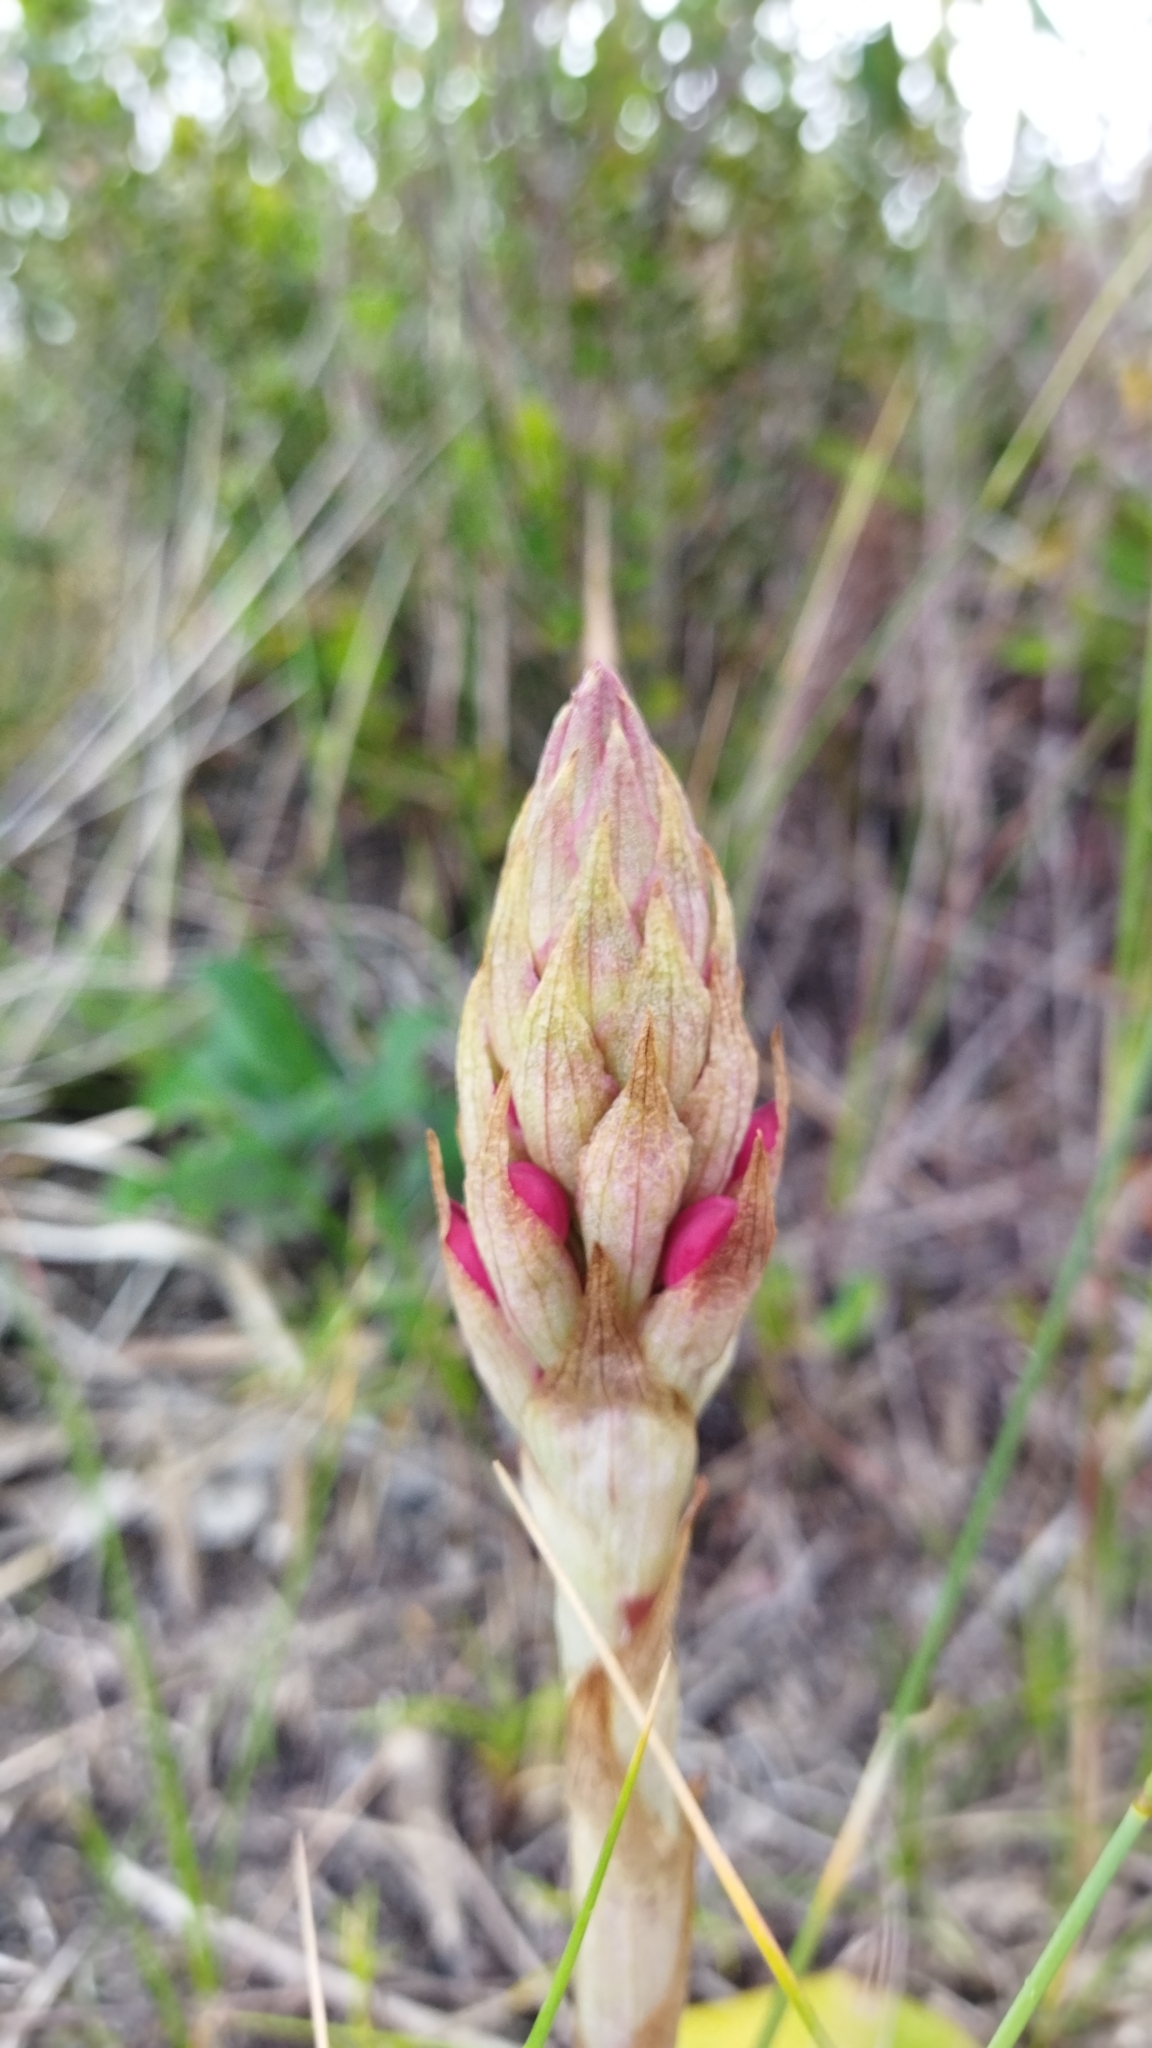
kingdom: Plantae
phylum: Tracheophyta
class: Liliopsida
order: Asparagales
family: Orchidaceae
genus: Satyrium
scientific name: Satyrium princeps
